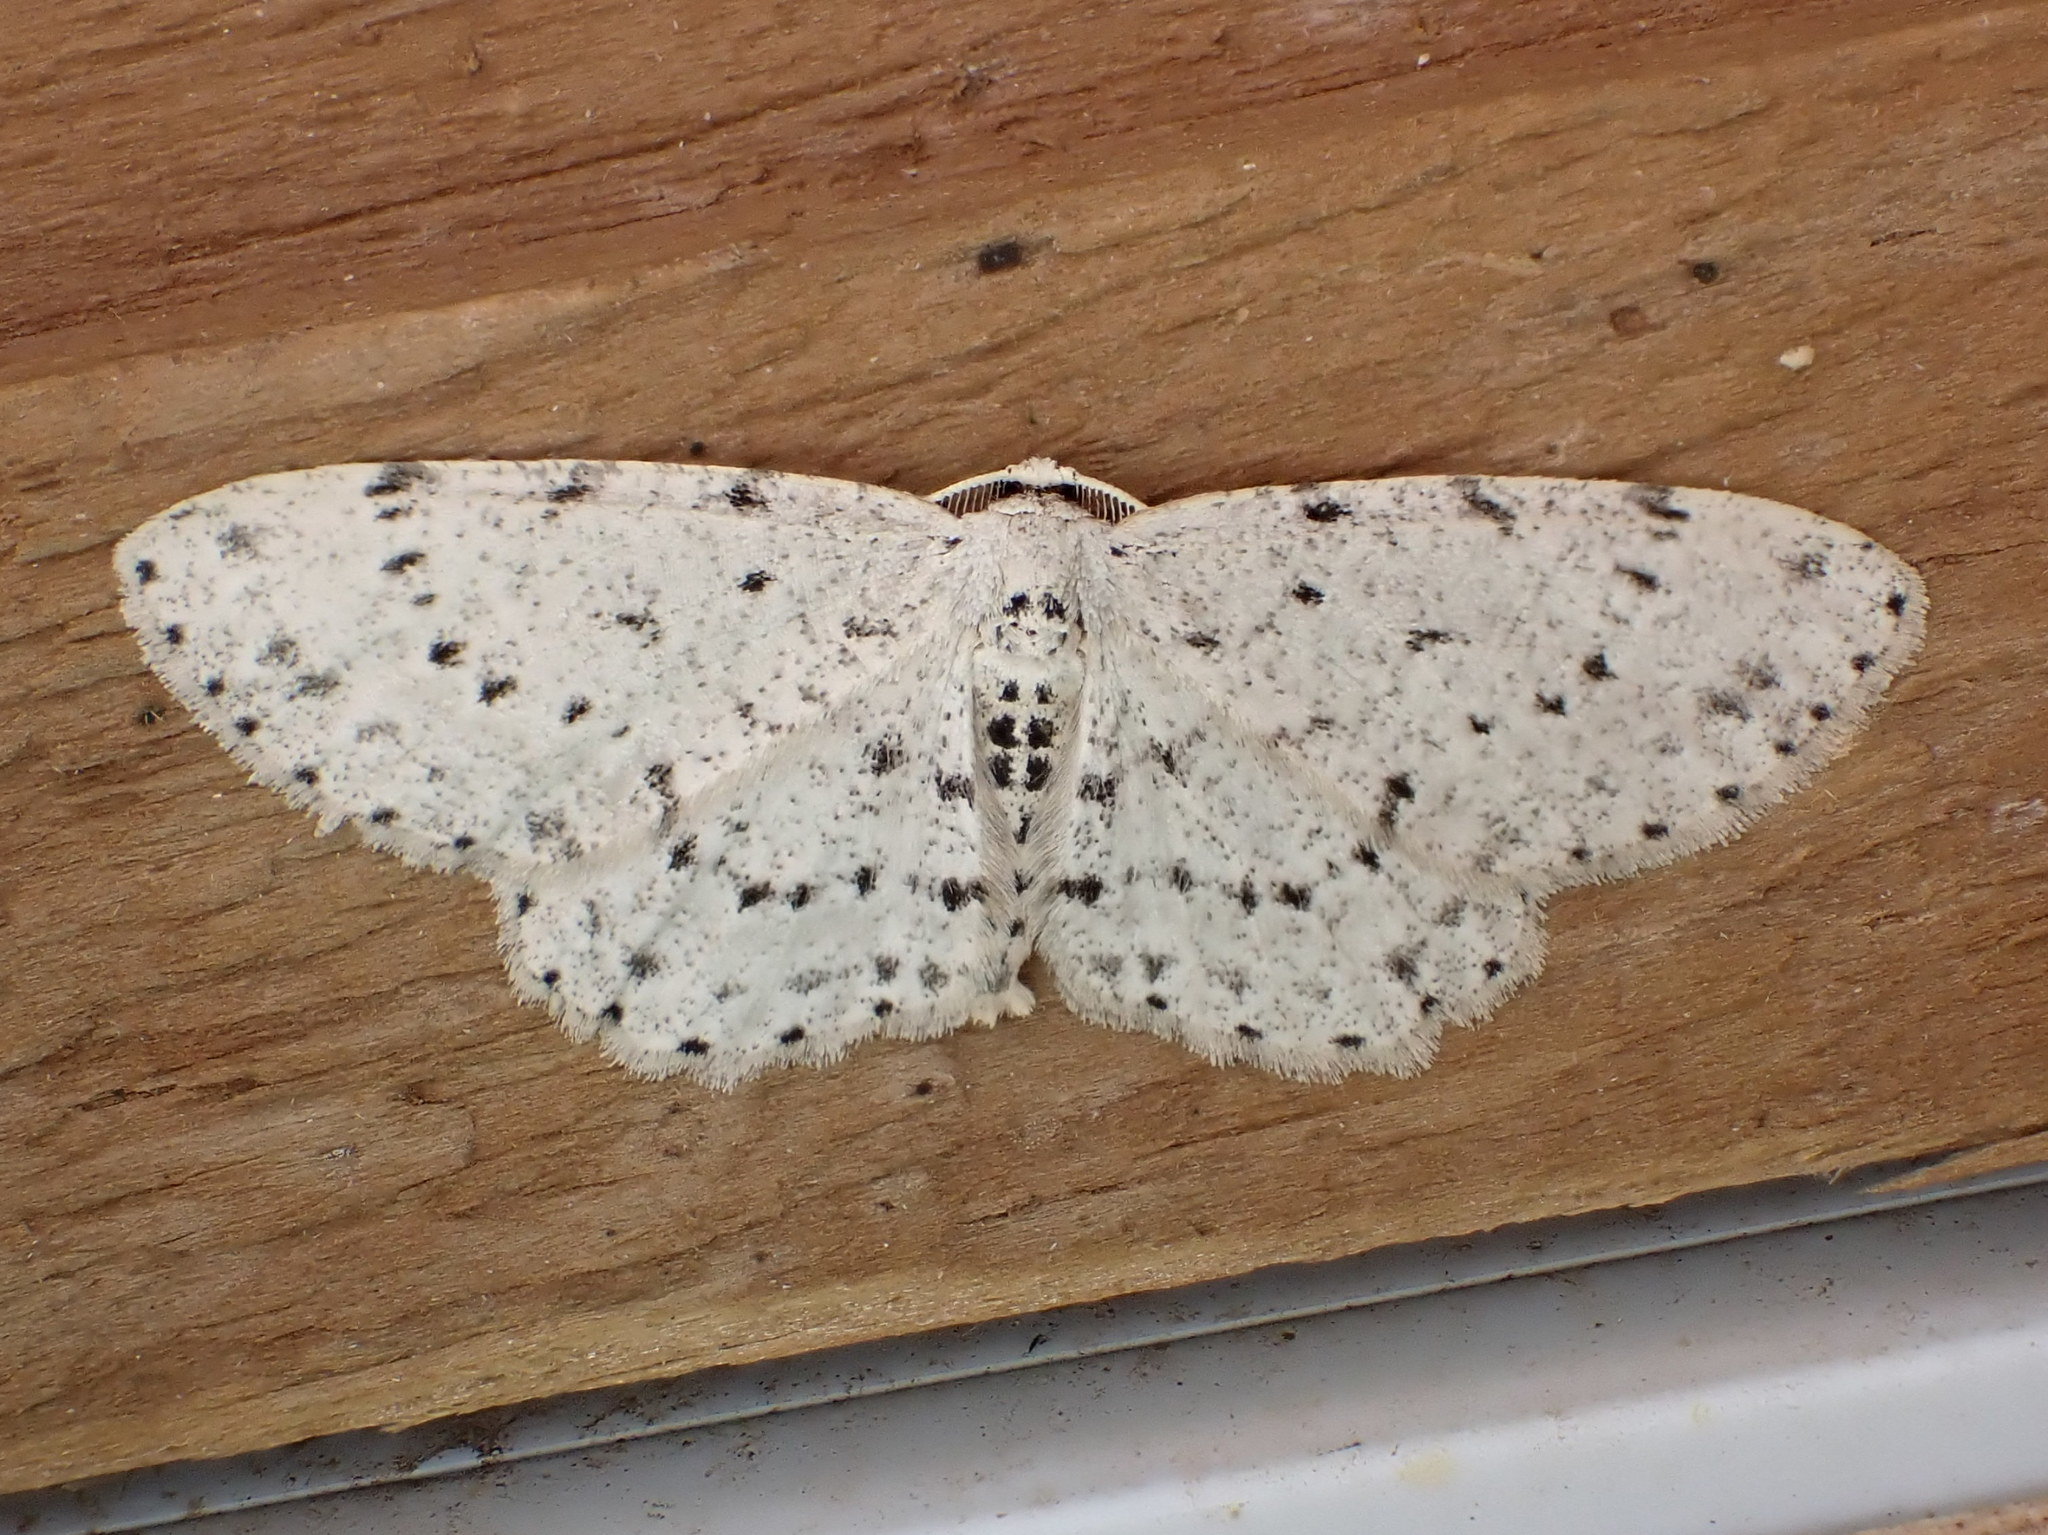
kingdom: Animalia
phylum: Arthropoda
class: Insecta
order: Lepidoptera
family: Geometridae
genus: Glena
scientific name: Glena cribrataria
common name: Dotted gray
